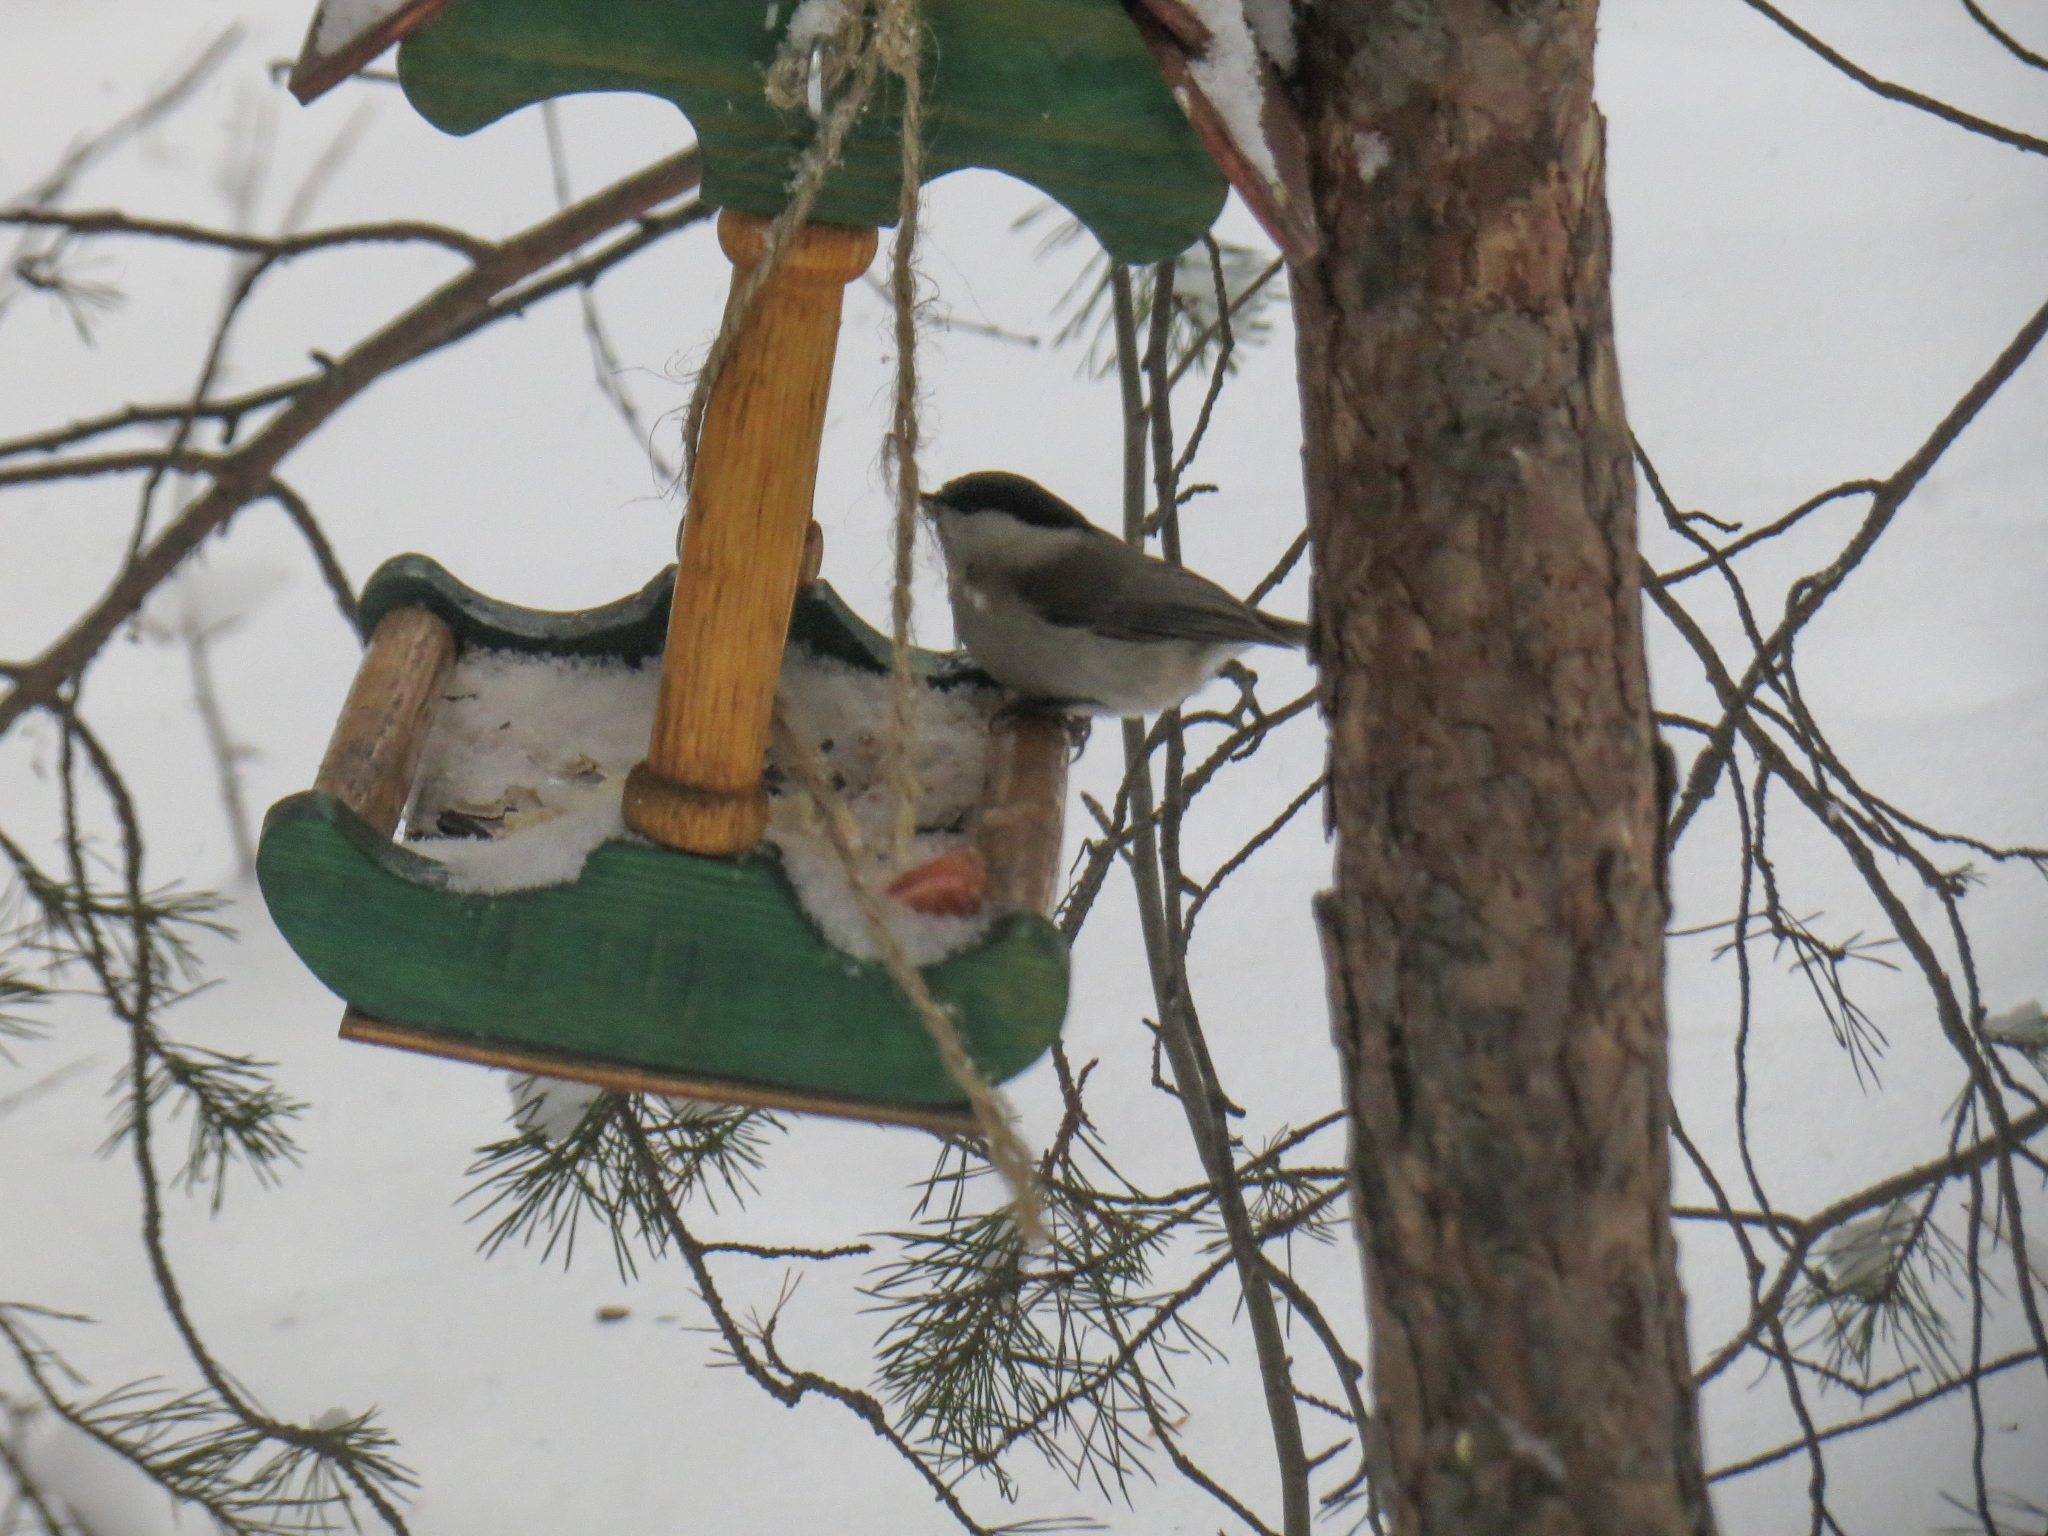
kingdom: Animalia
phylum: Chordata
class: Aves
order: Passeriformes
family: Paridae
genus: Poecile
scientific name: Poecile palustris
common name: Marsh tit
